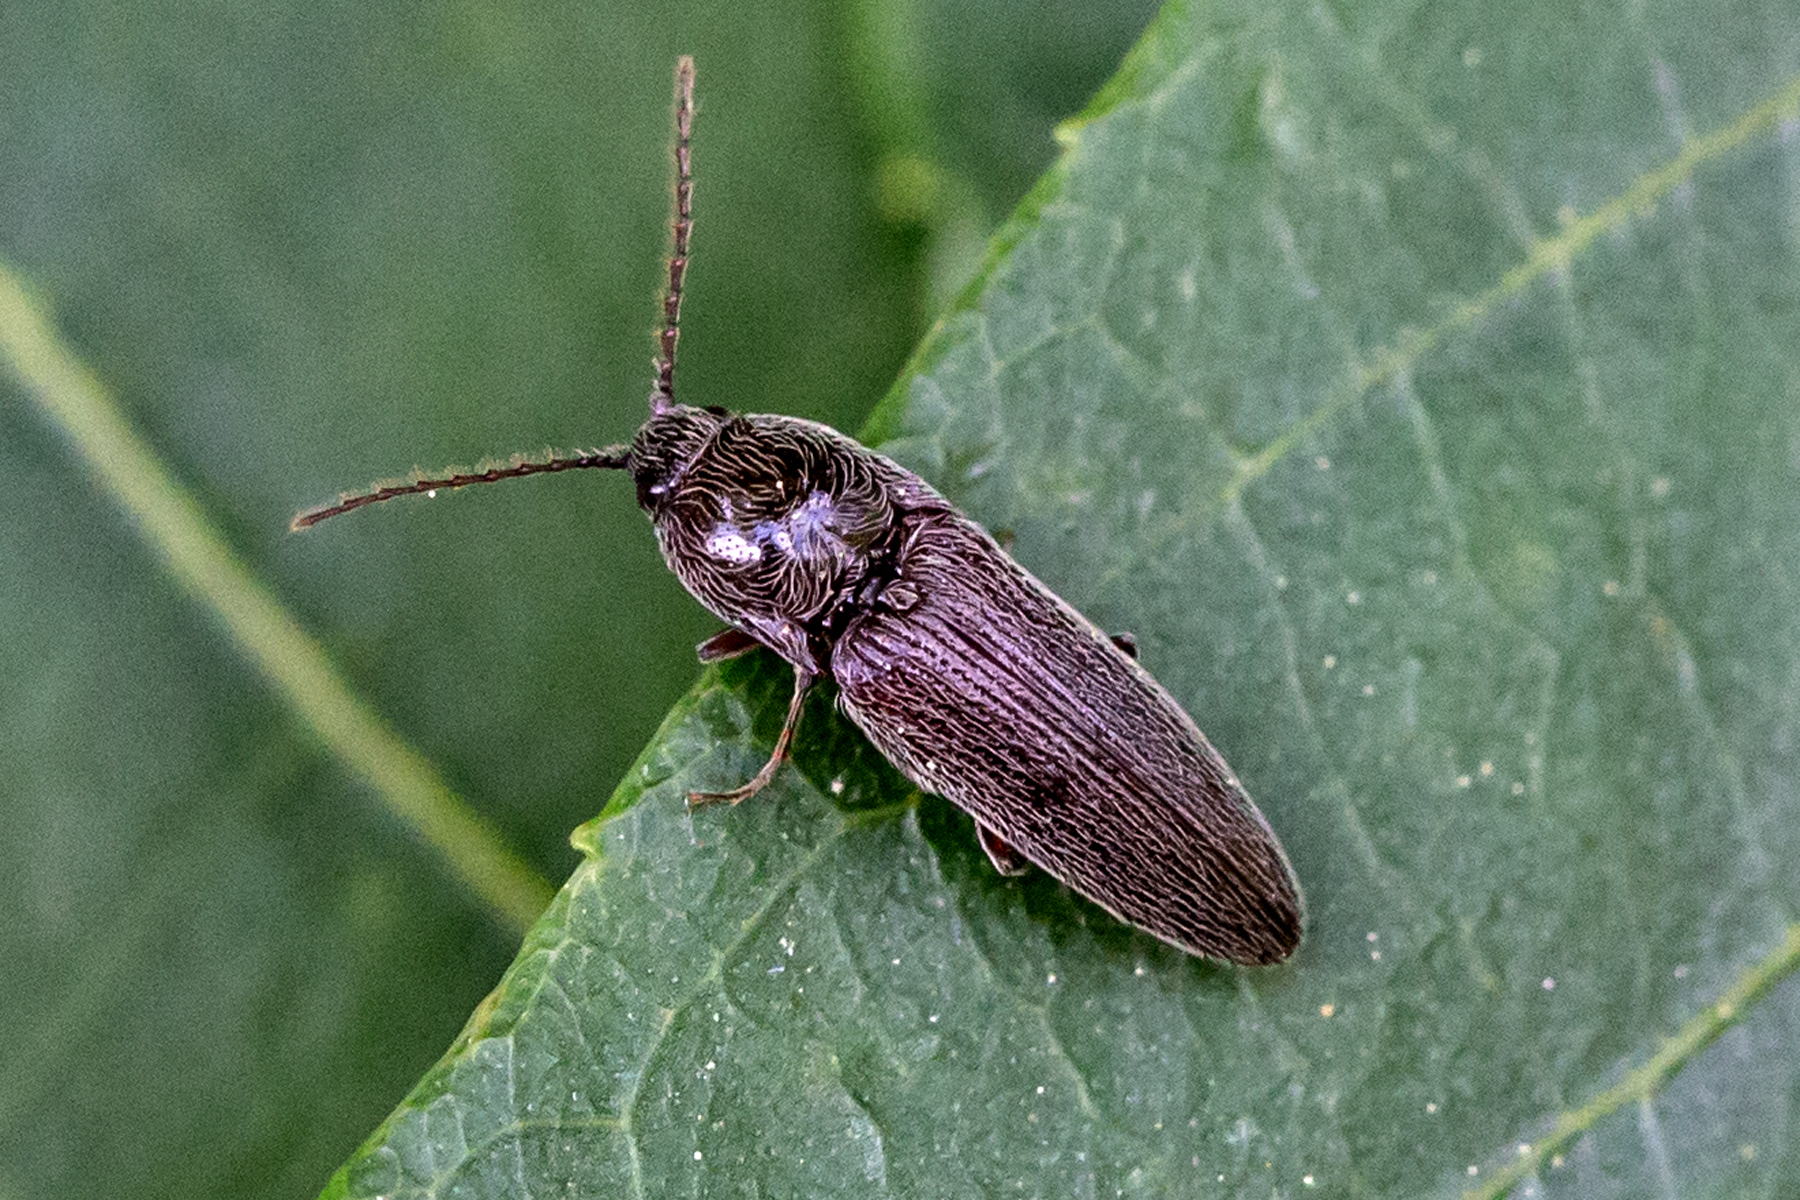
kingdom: Animalia
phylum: Arthropoda
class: Insecta
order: Coleoptera
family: Elateridae
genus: Melanotus
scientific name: Melanotus americanus
